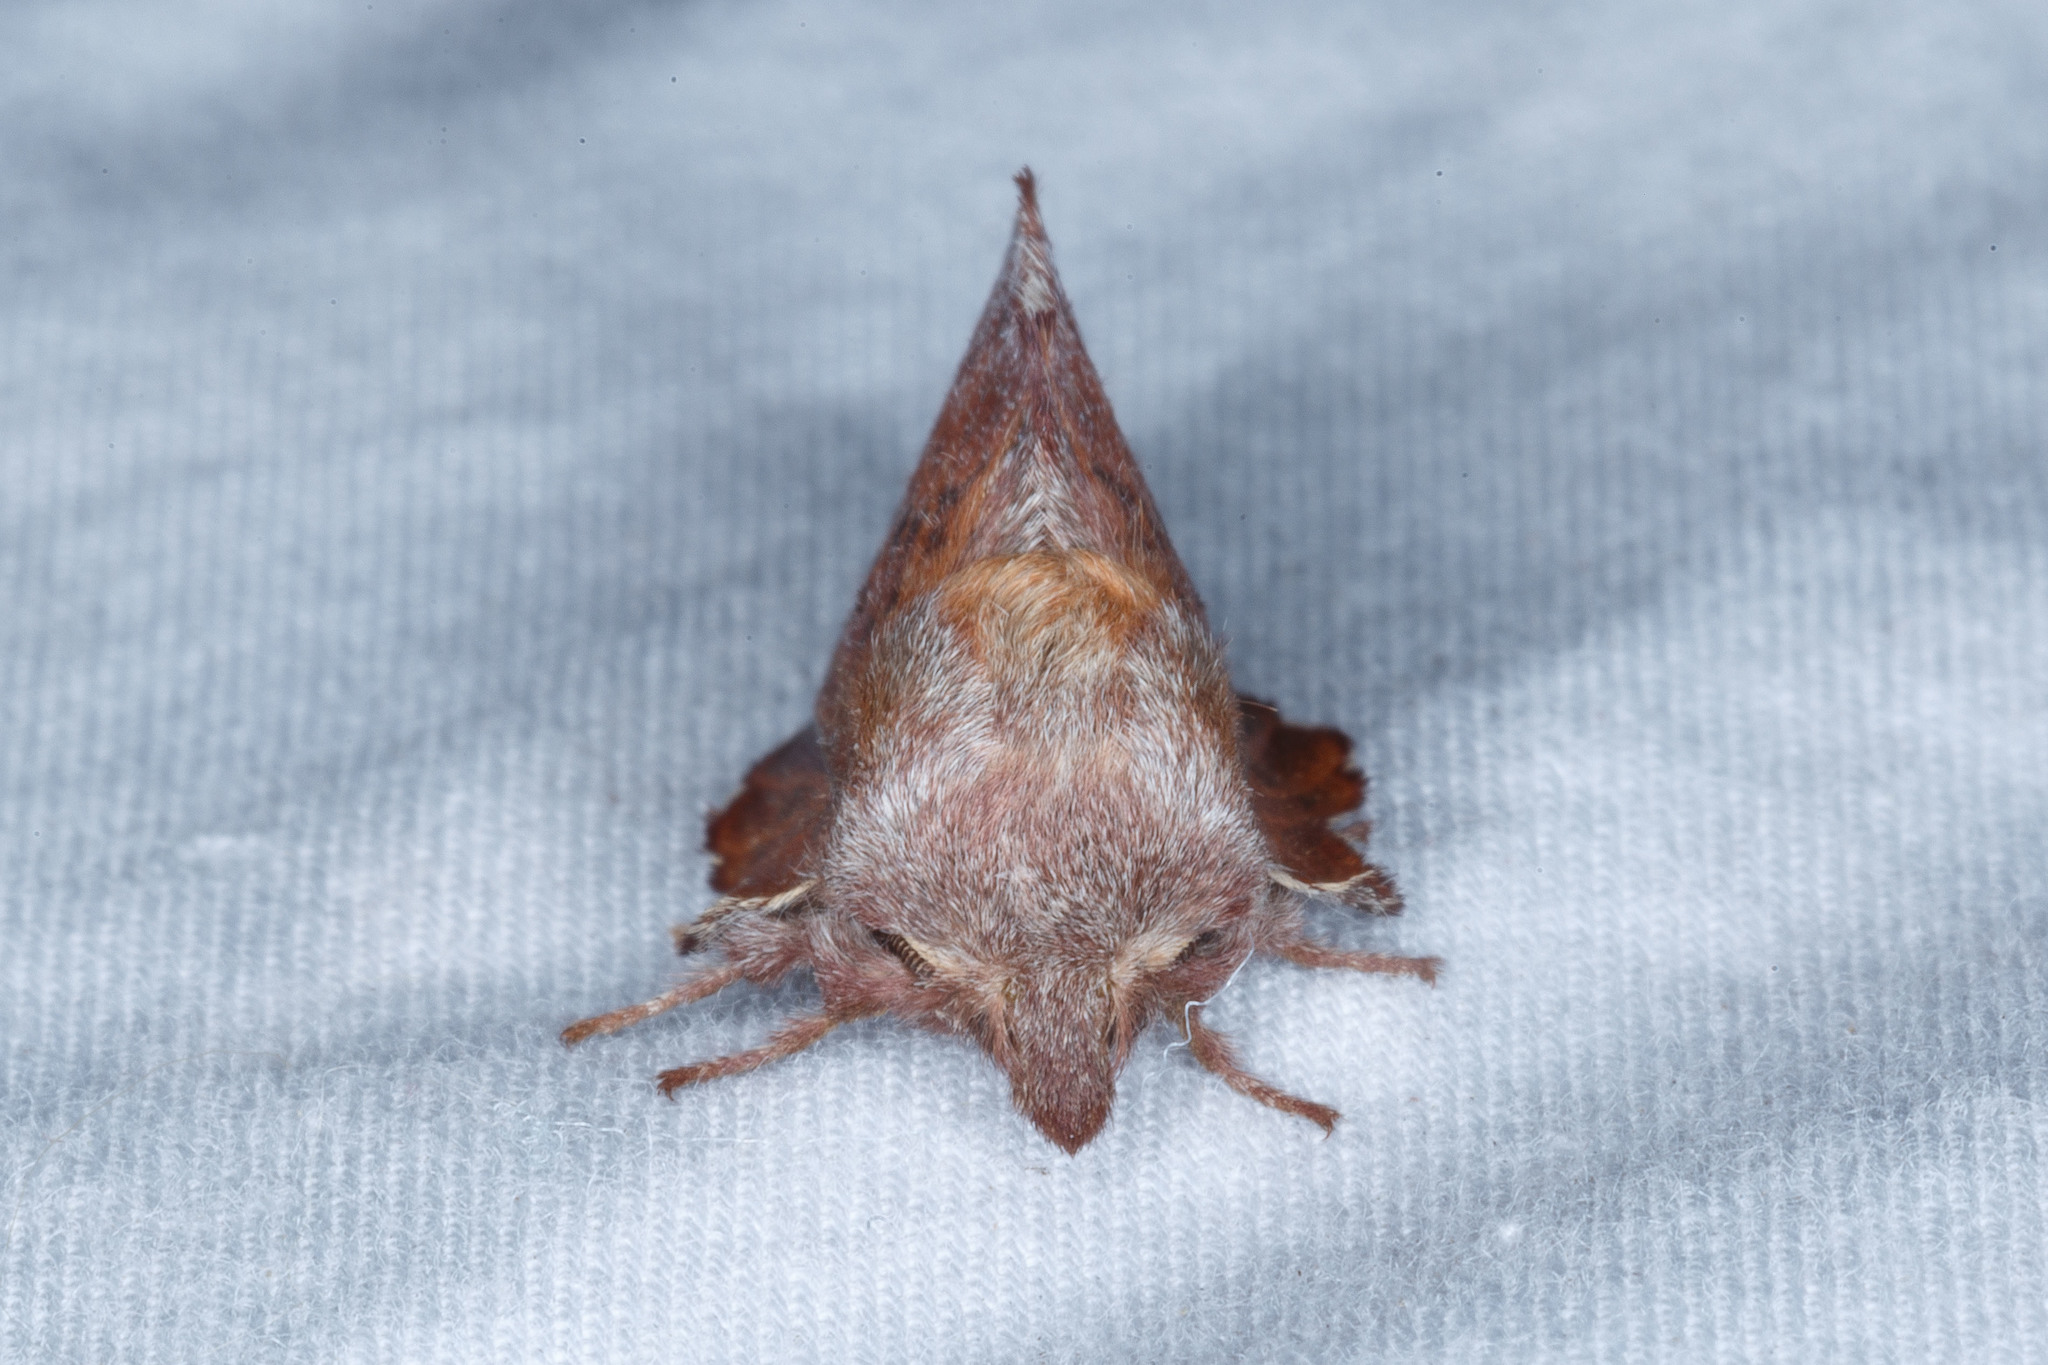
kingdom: Animalia
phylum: Arthropoda
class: Insecta
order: Lepidoptera
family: Lasiocampidae
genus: Phyllodesma
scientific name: Phyllodesma americana
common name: American lappet moth
